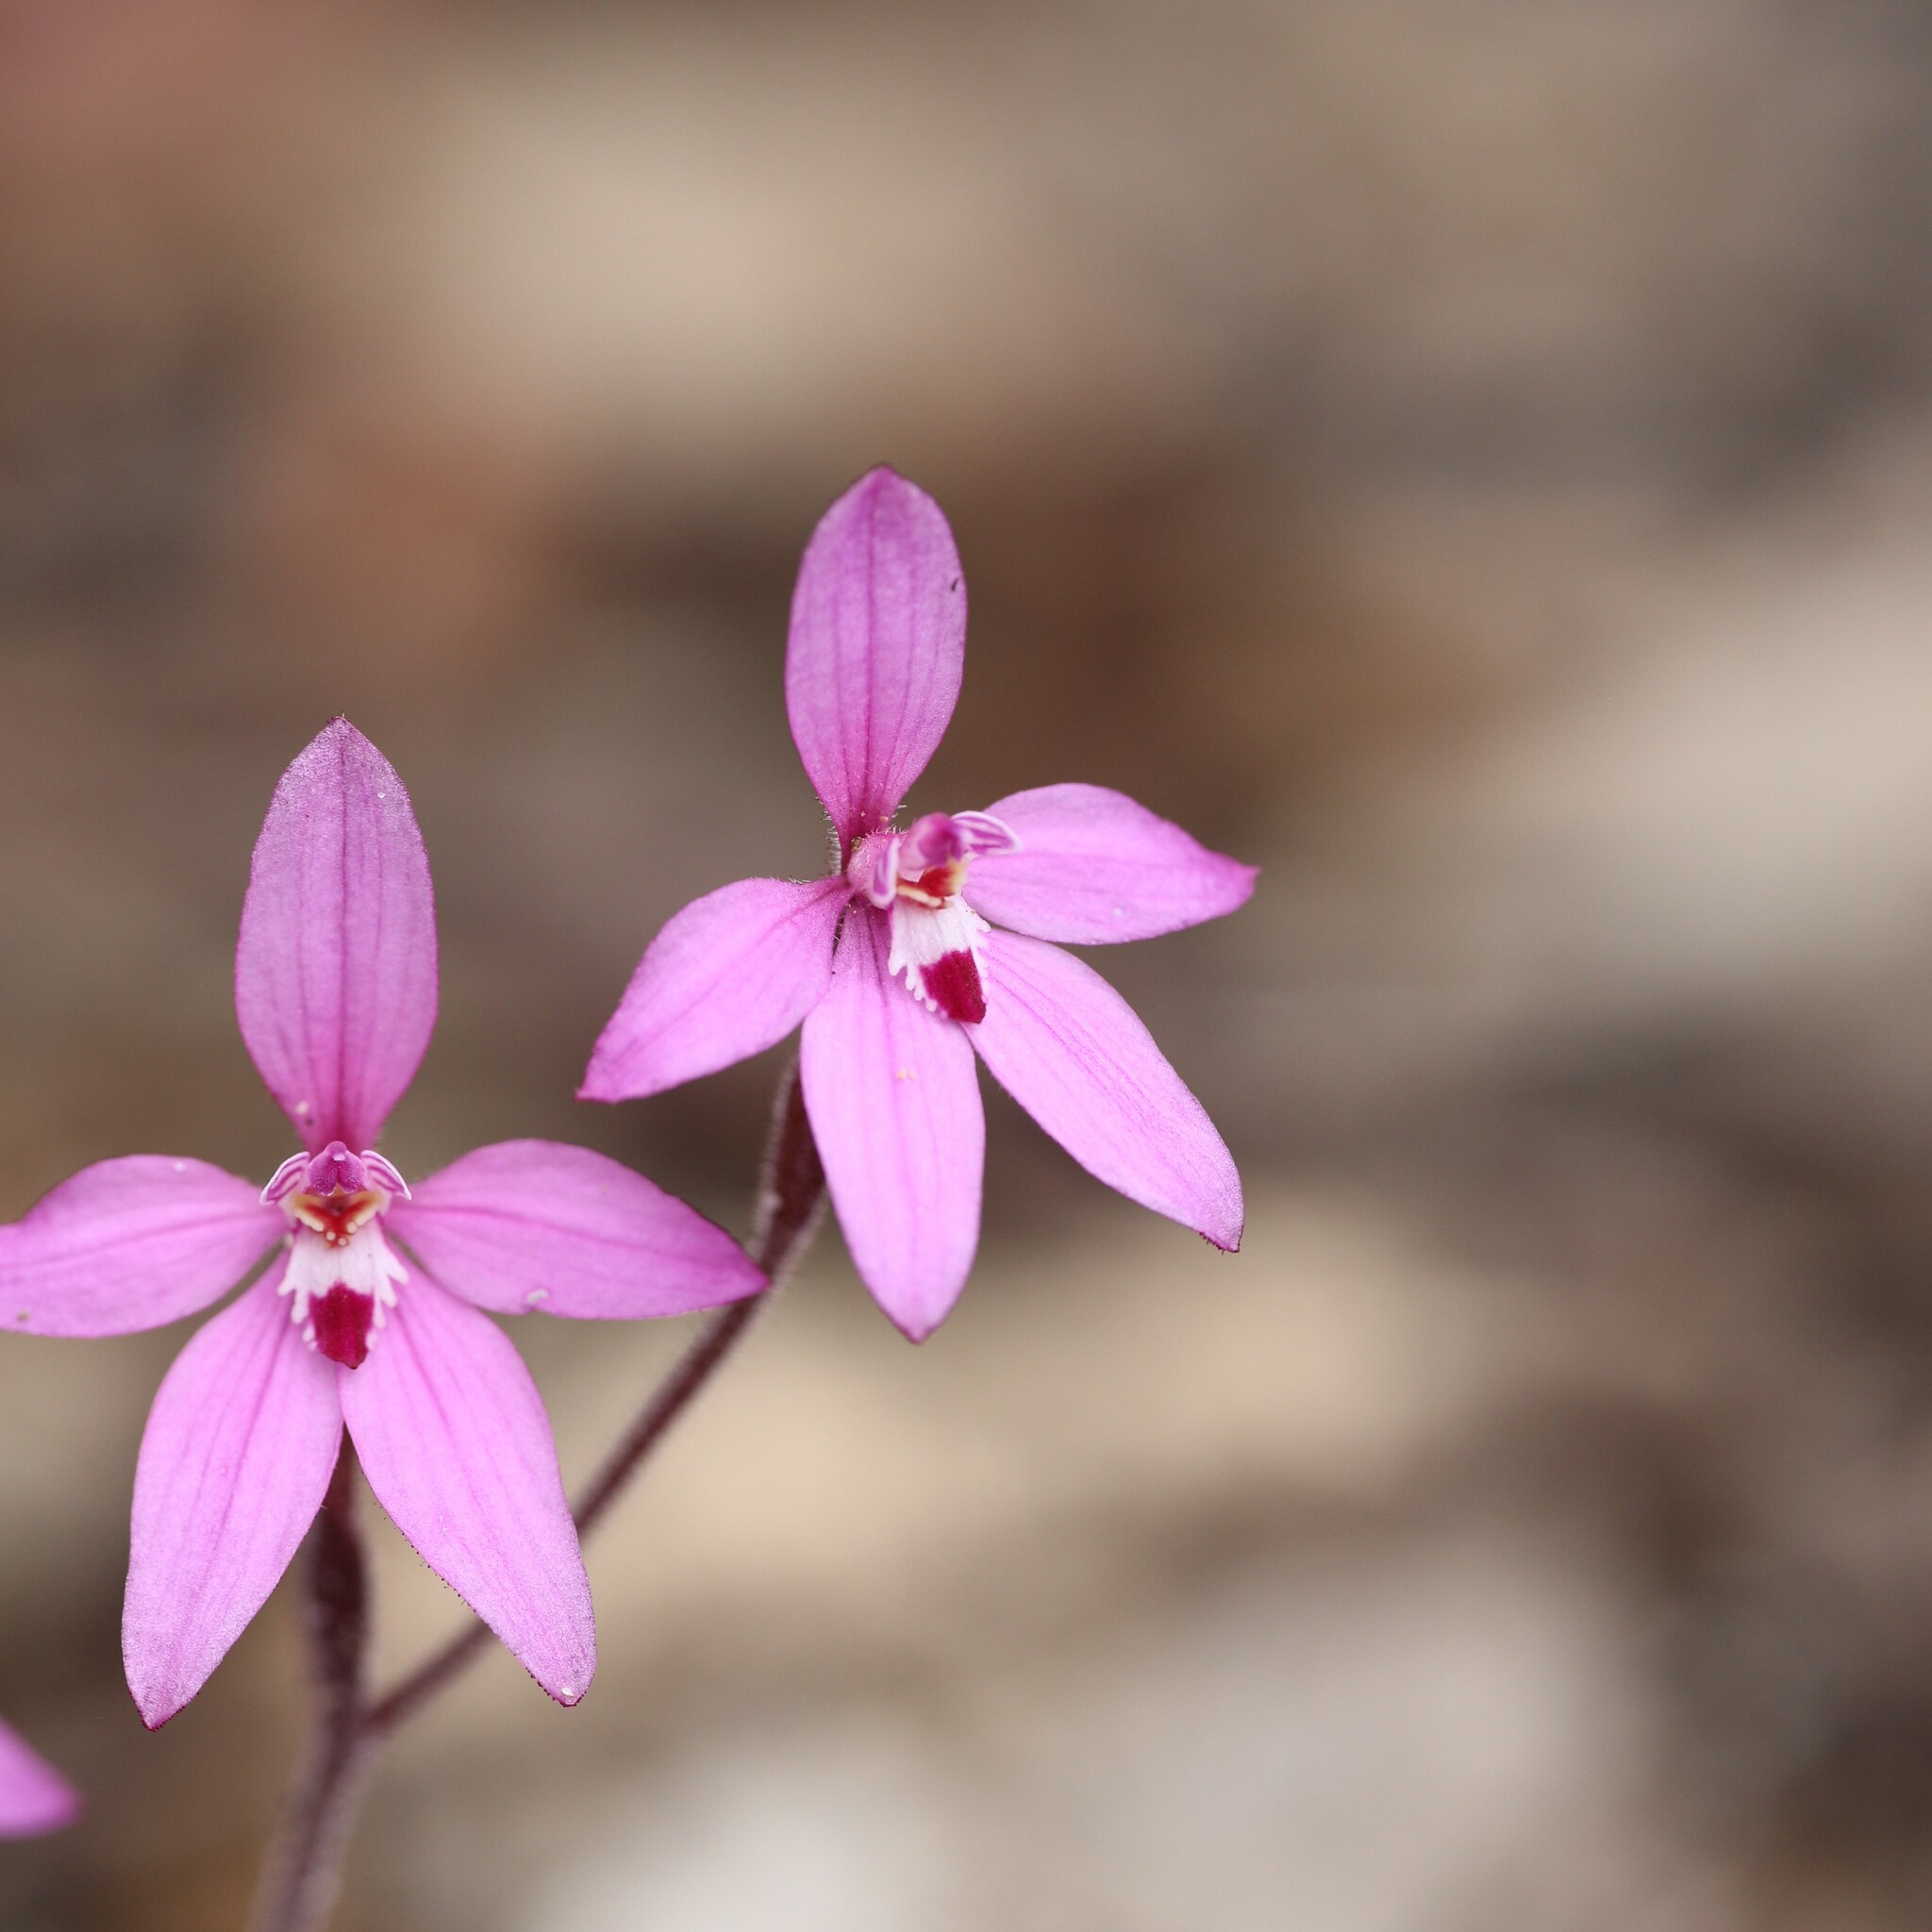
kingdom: Plantae
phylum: Tracheophyta
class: Liliopsida
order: Asparagales
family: Orchidaceae
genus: Caladenia
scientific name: Caladenia reptans
